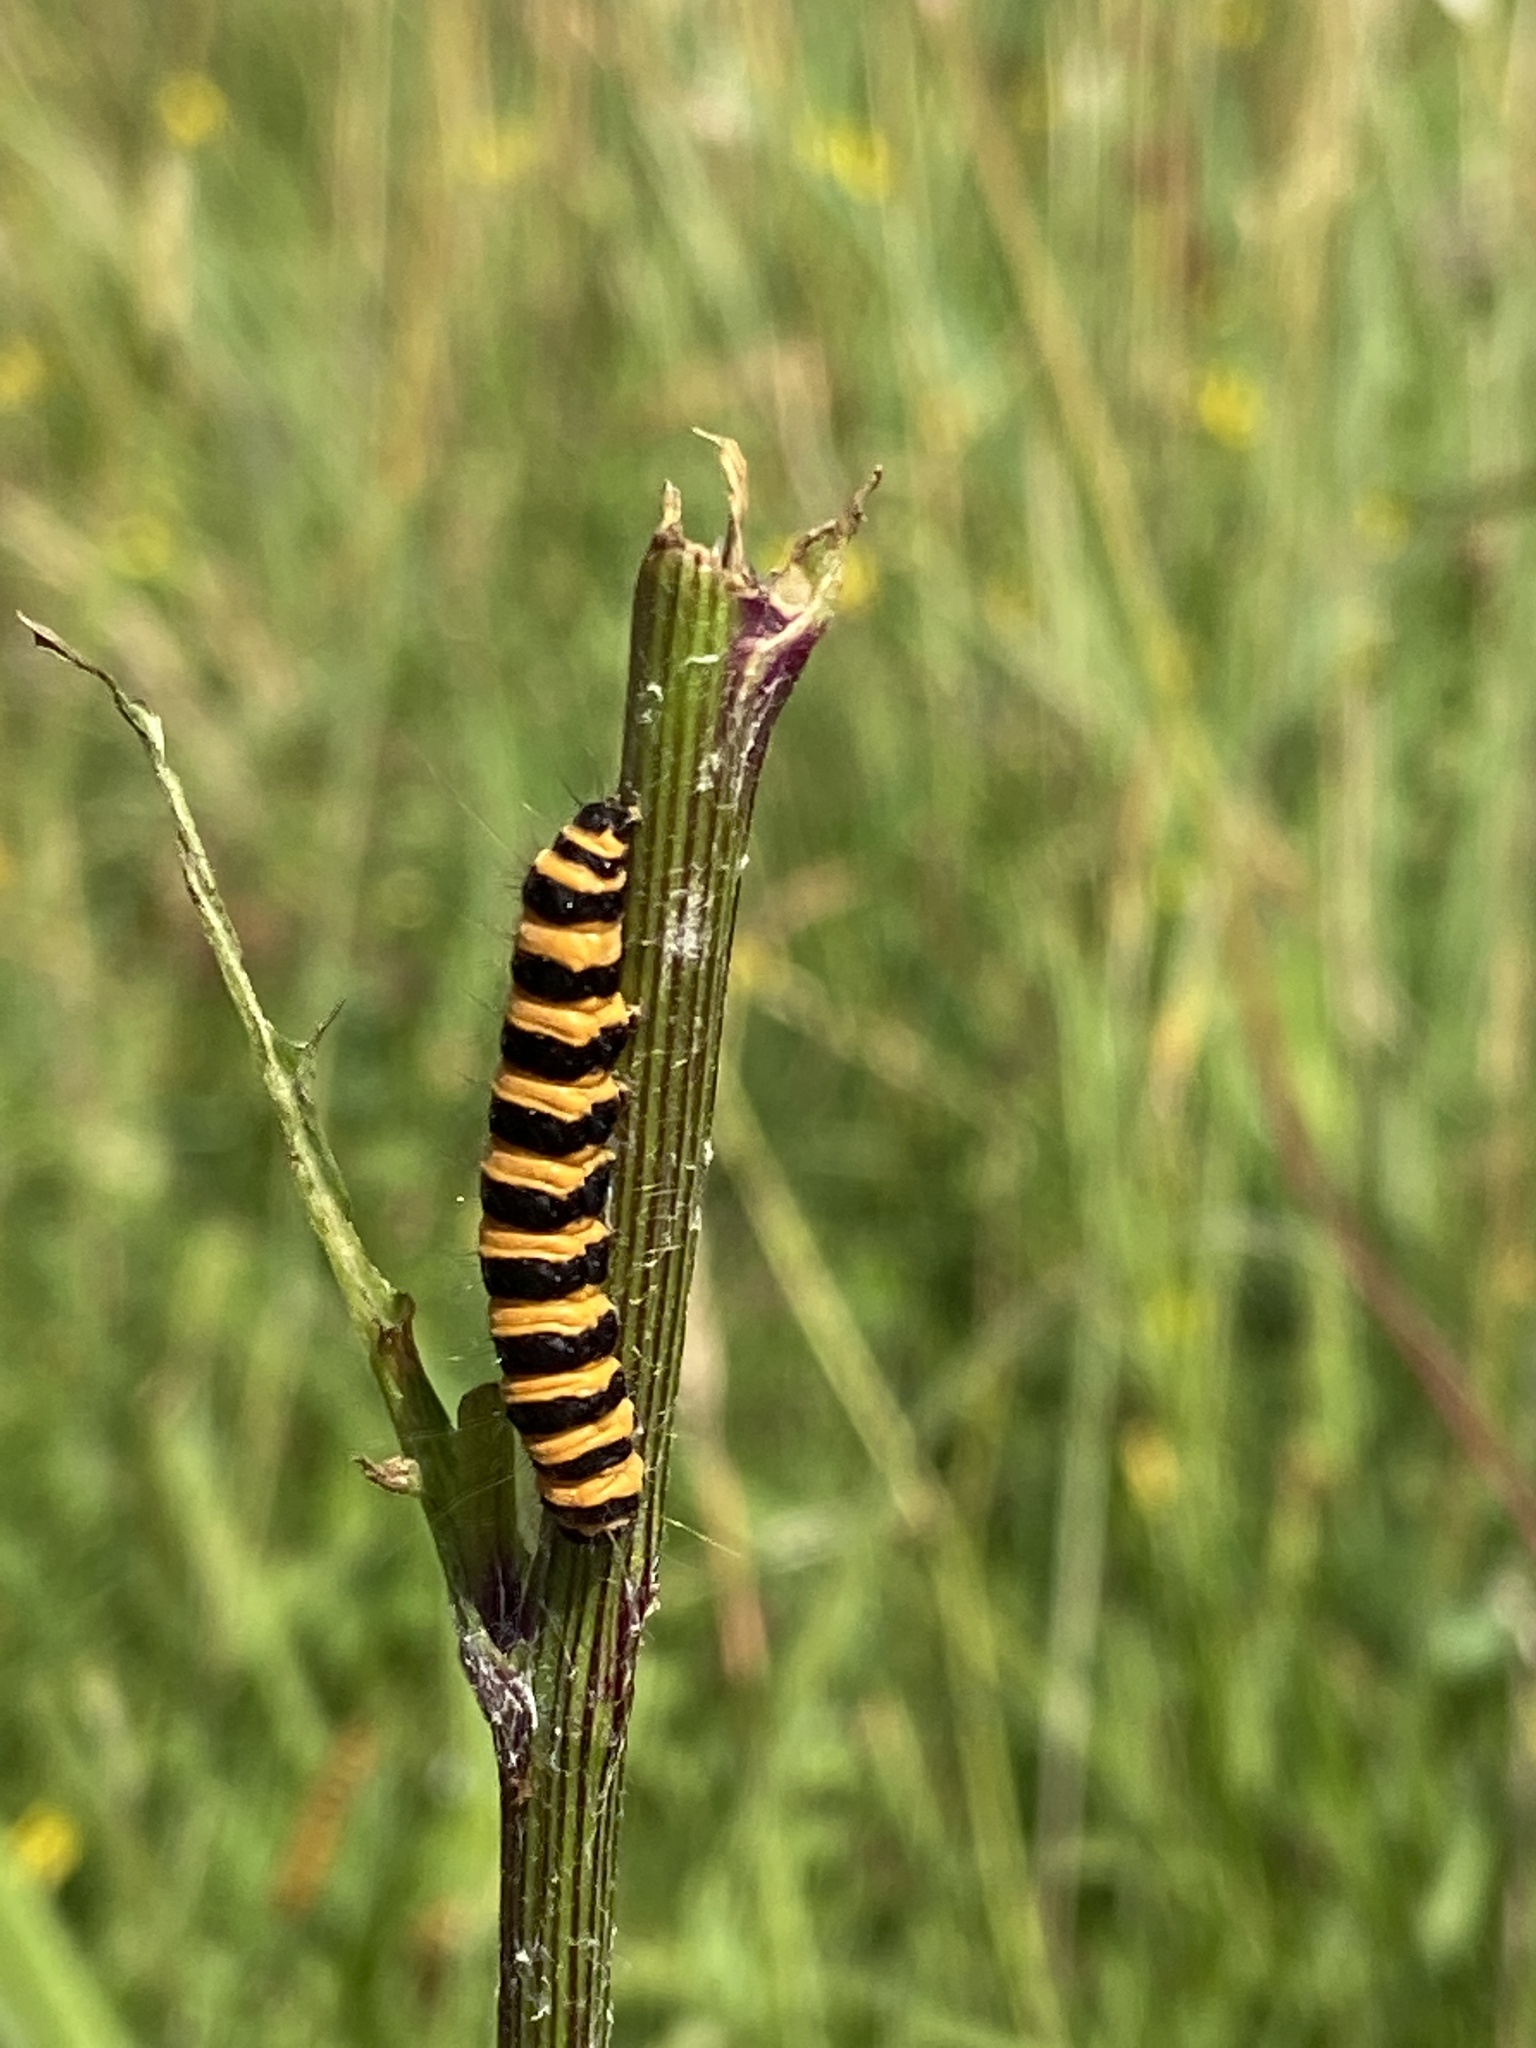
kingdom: Animalia
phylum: Arthropoda
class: Insecta
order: Lepidoptera
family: Erebidae
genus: Tyria
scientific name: Tyria jacobaeae
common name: Cinnabar
